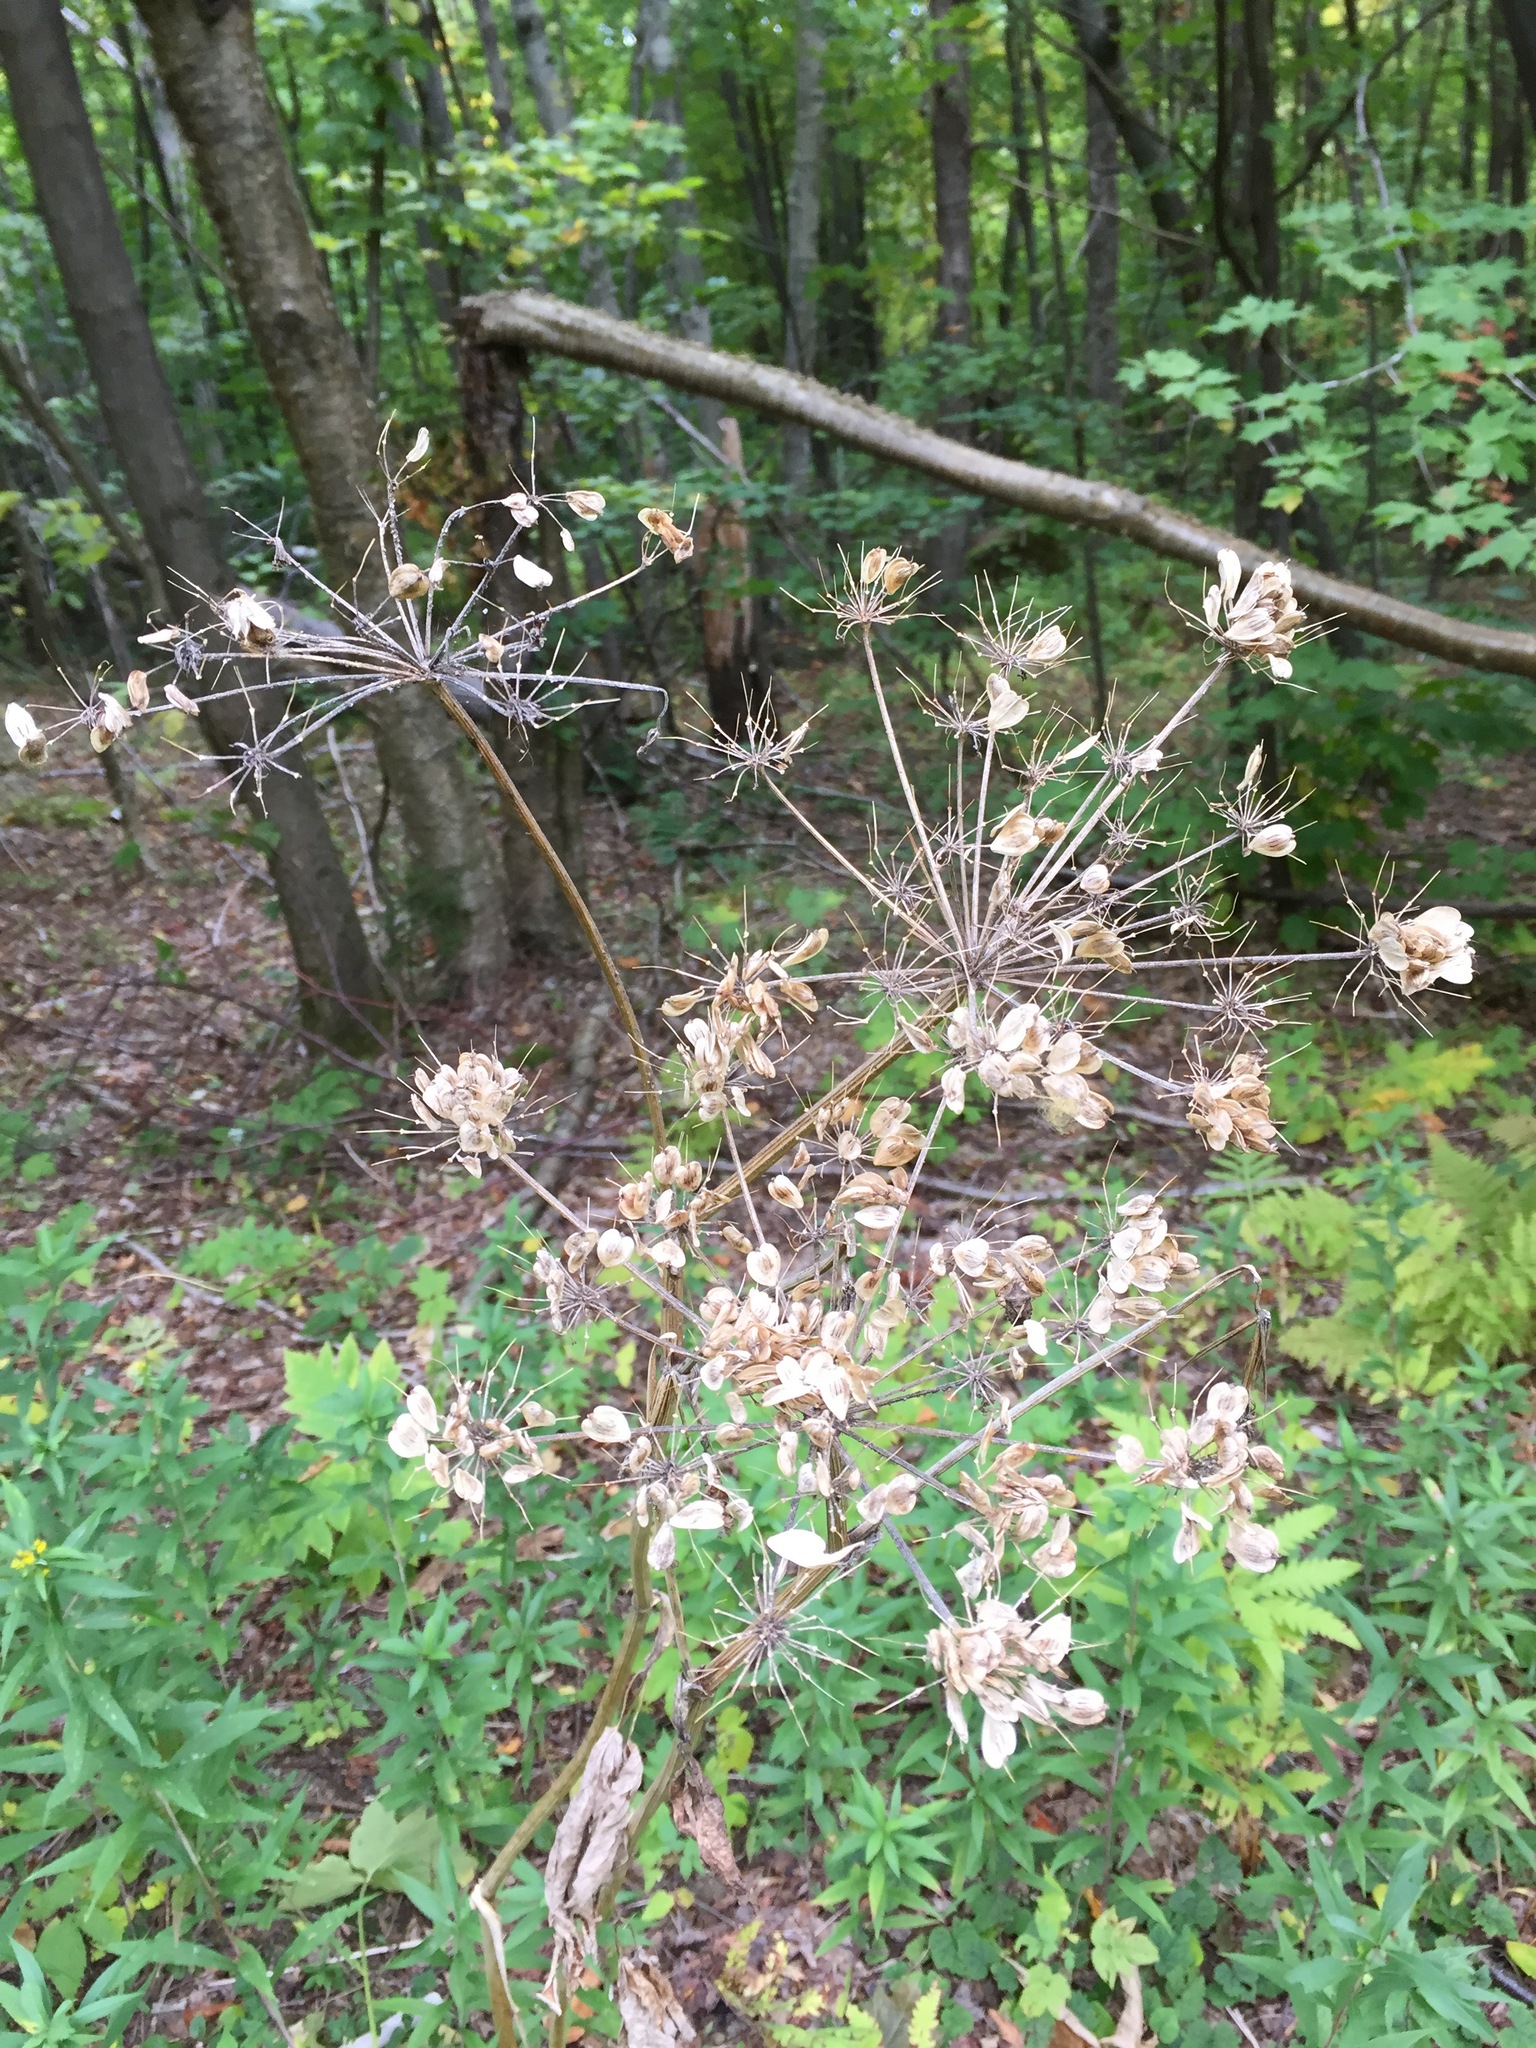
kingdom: Plantae
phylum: Tracheophyta
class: Magnoliopsida
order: Apiales
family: Apiaceae
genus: Heracleum
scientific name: Heracleum maximum
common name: American cow parsnip
